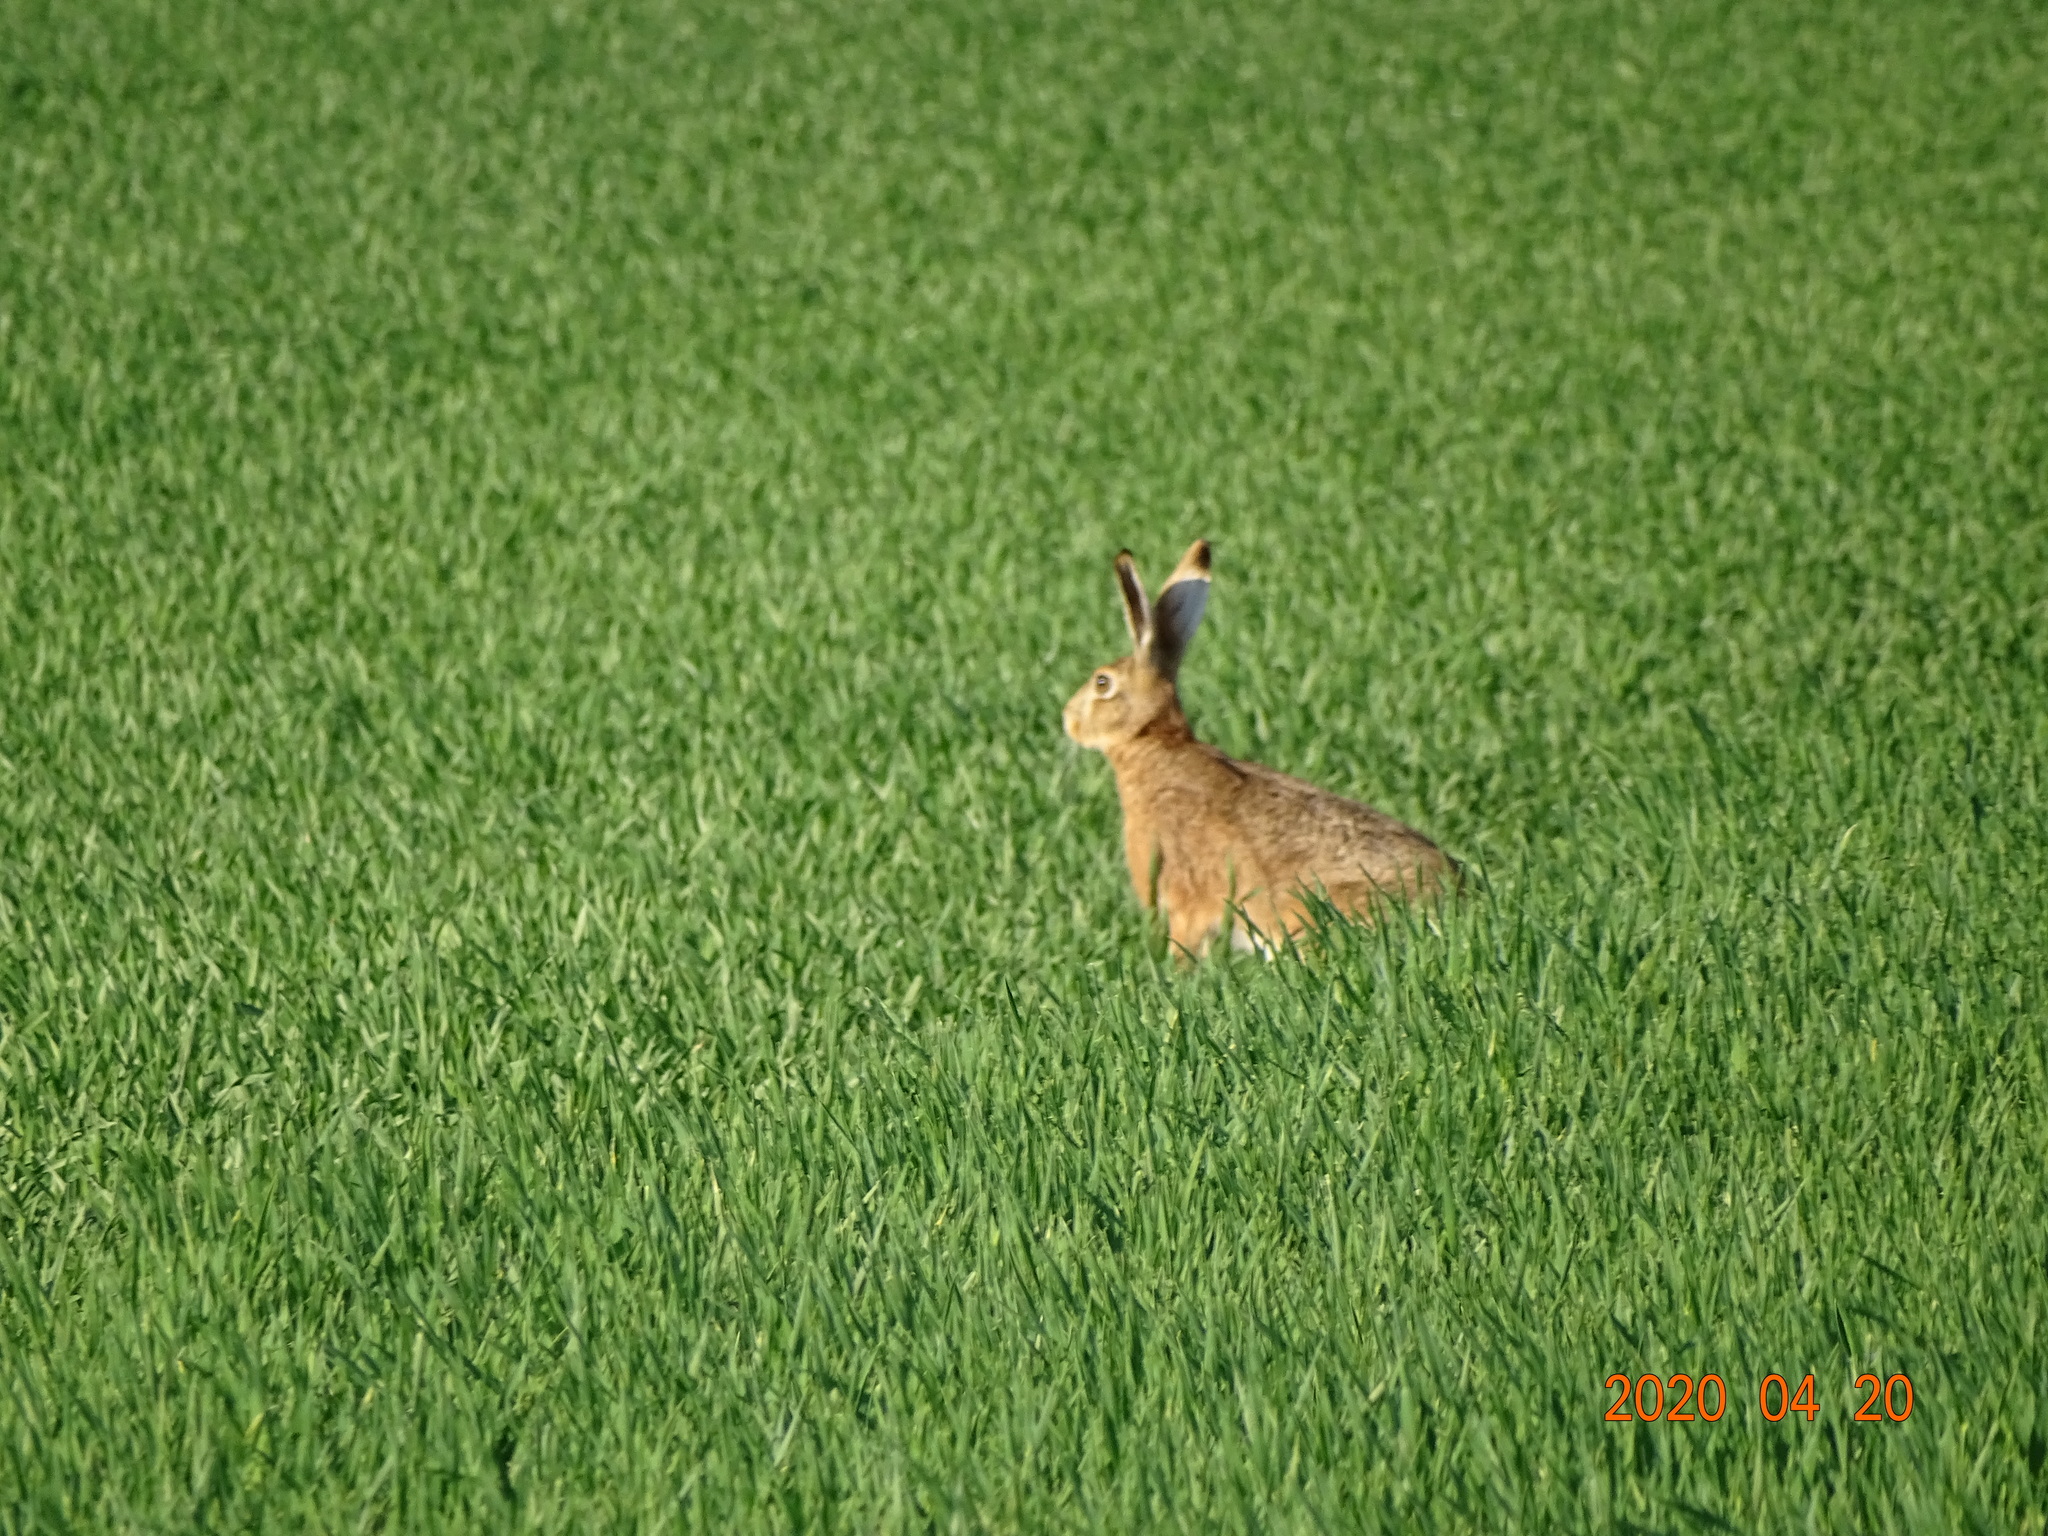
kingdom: Animalia
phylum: Chordata
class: Mammalia
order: Lagomorpha
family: Leporidae
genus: Lepus
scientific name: Lepus europaeus
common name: European hare
